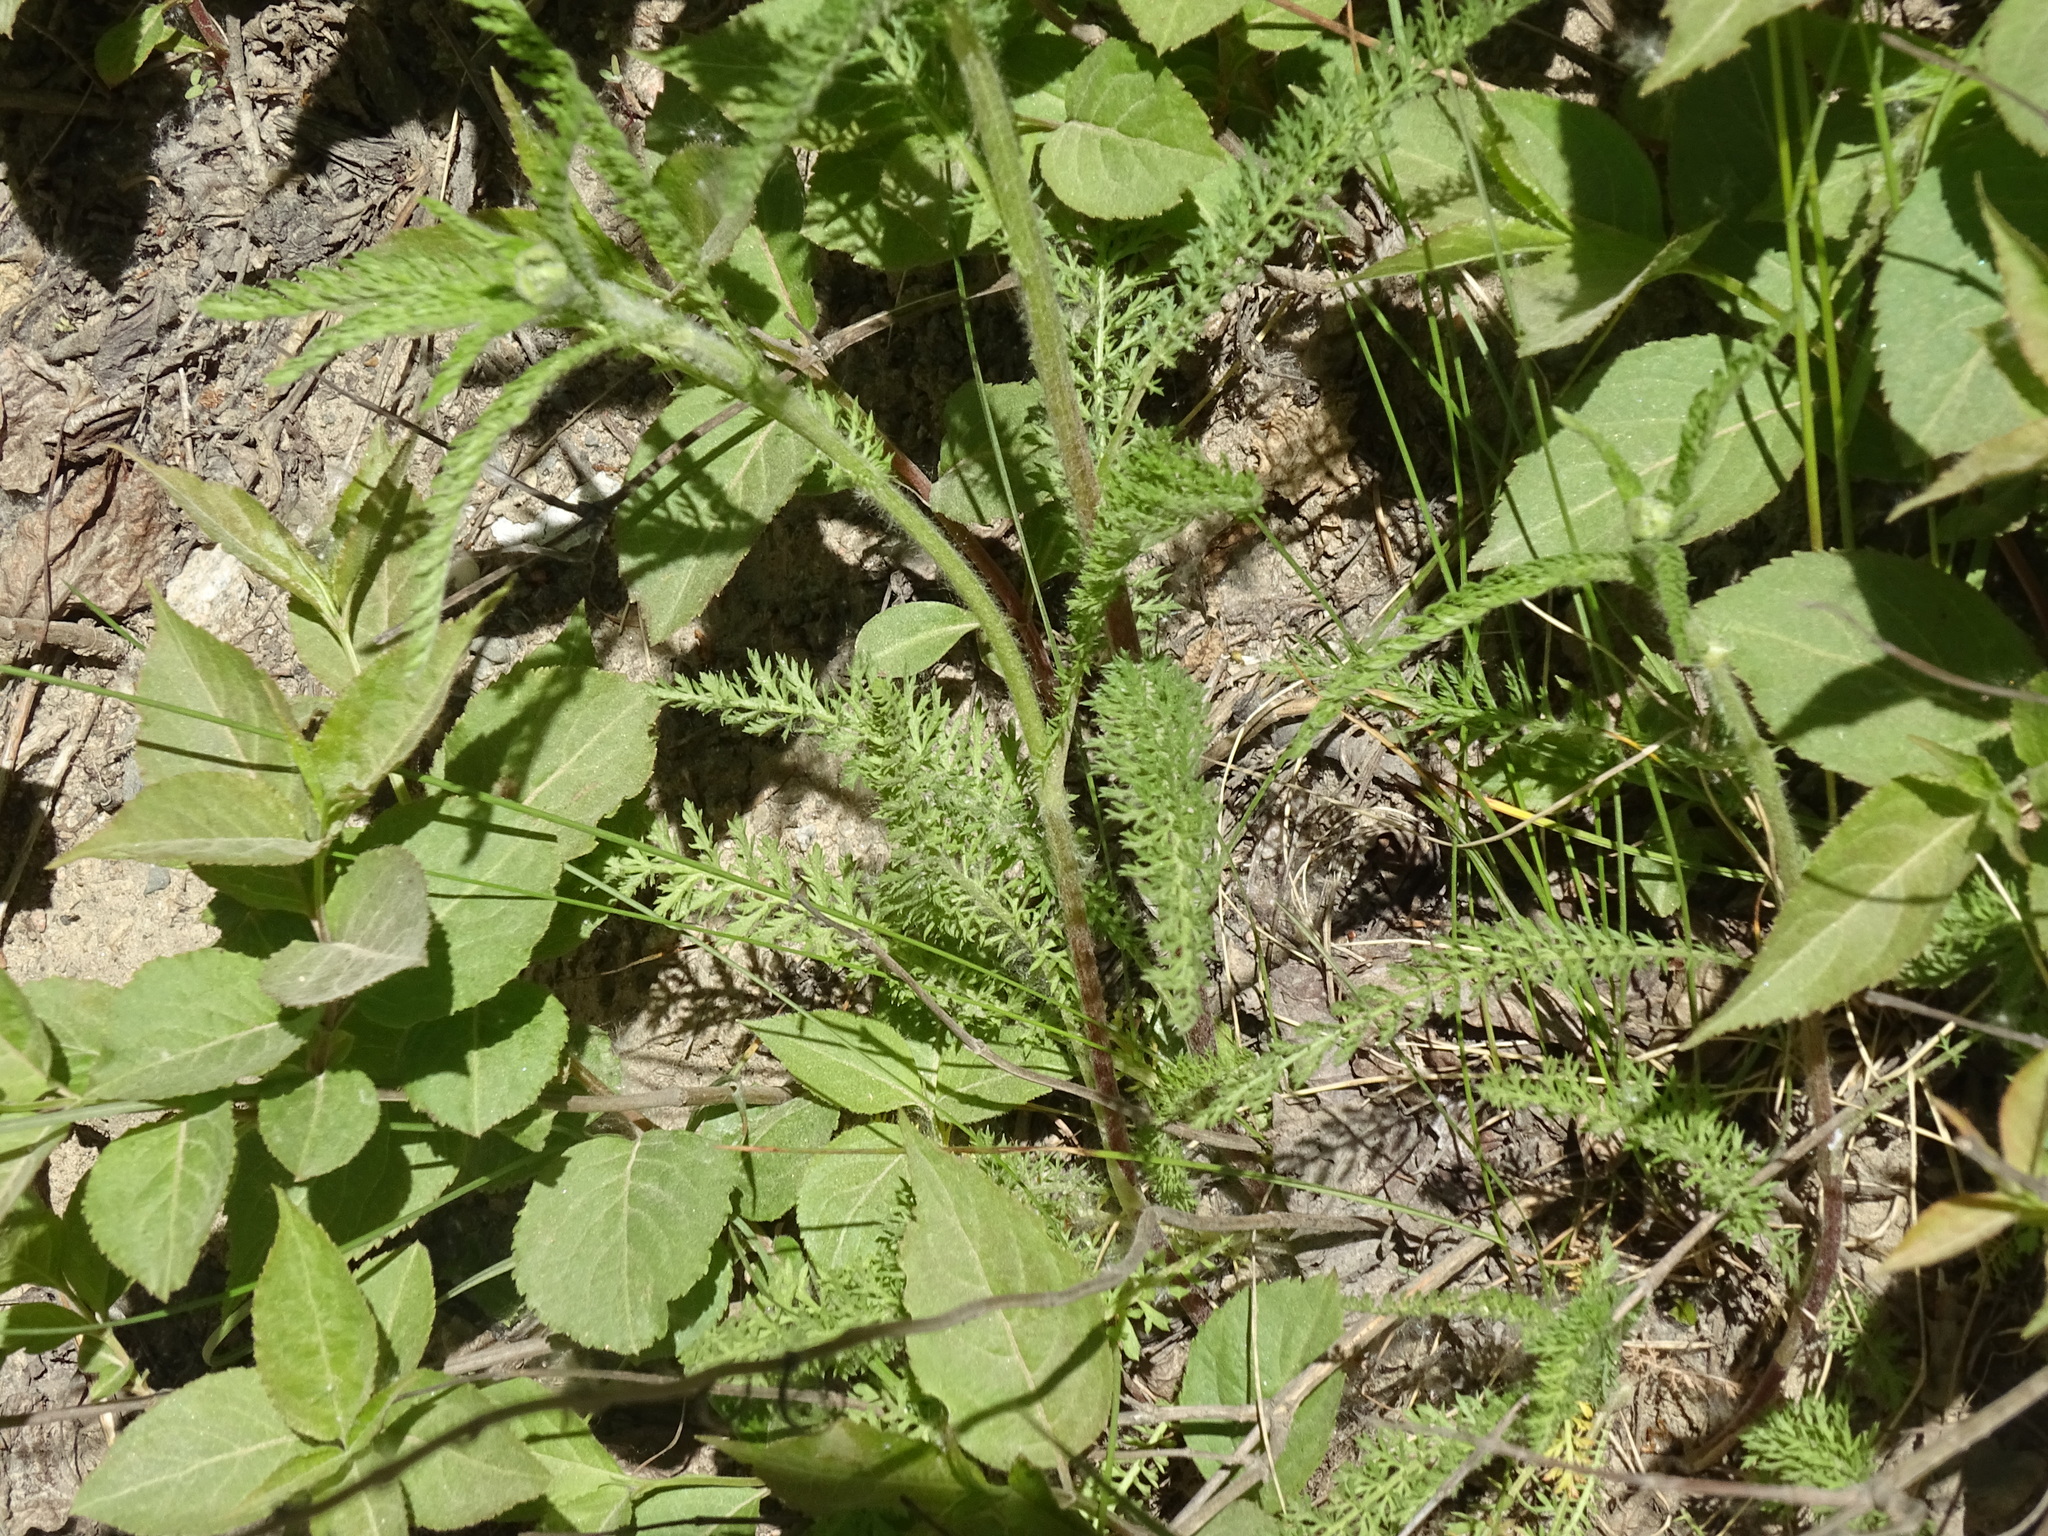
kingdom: Plantae
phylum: Tracheophyta
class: Magnoliopsida
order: Asterales
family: Asteraceae
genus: Achillea
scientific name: Achillea millefolium
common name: Yarrow
